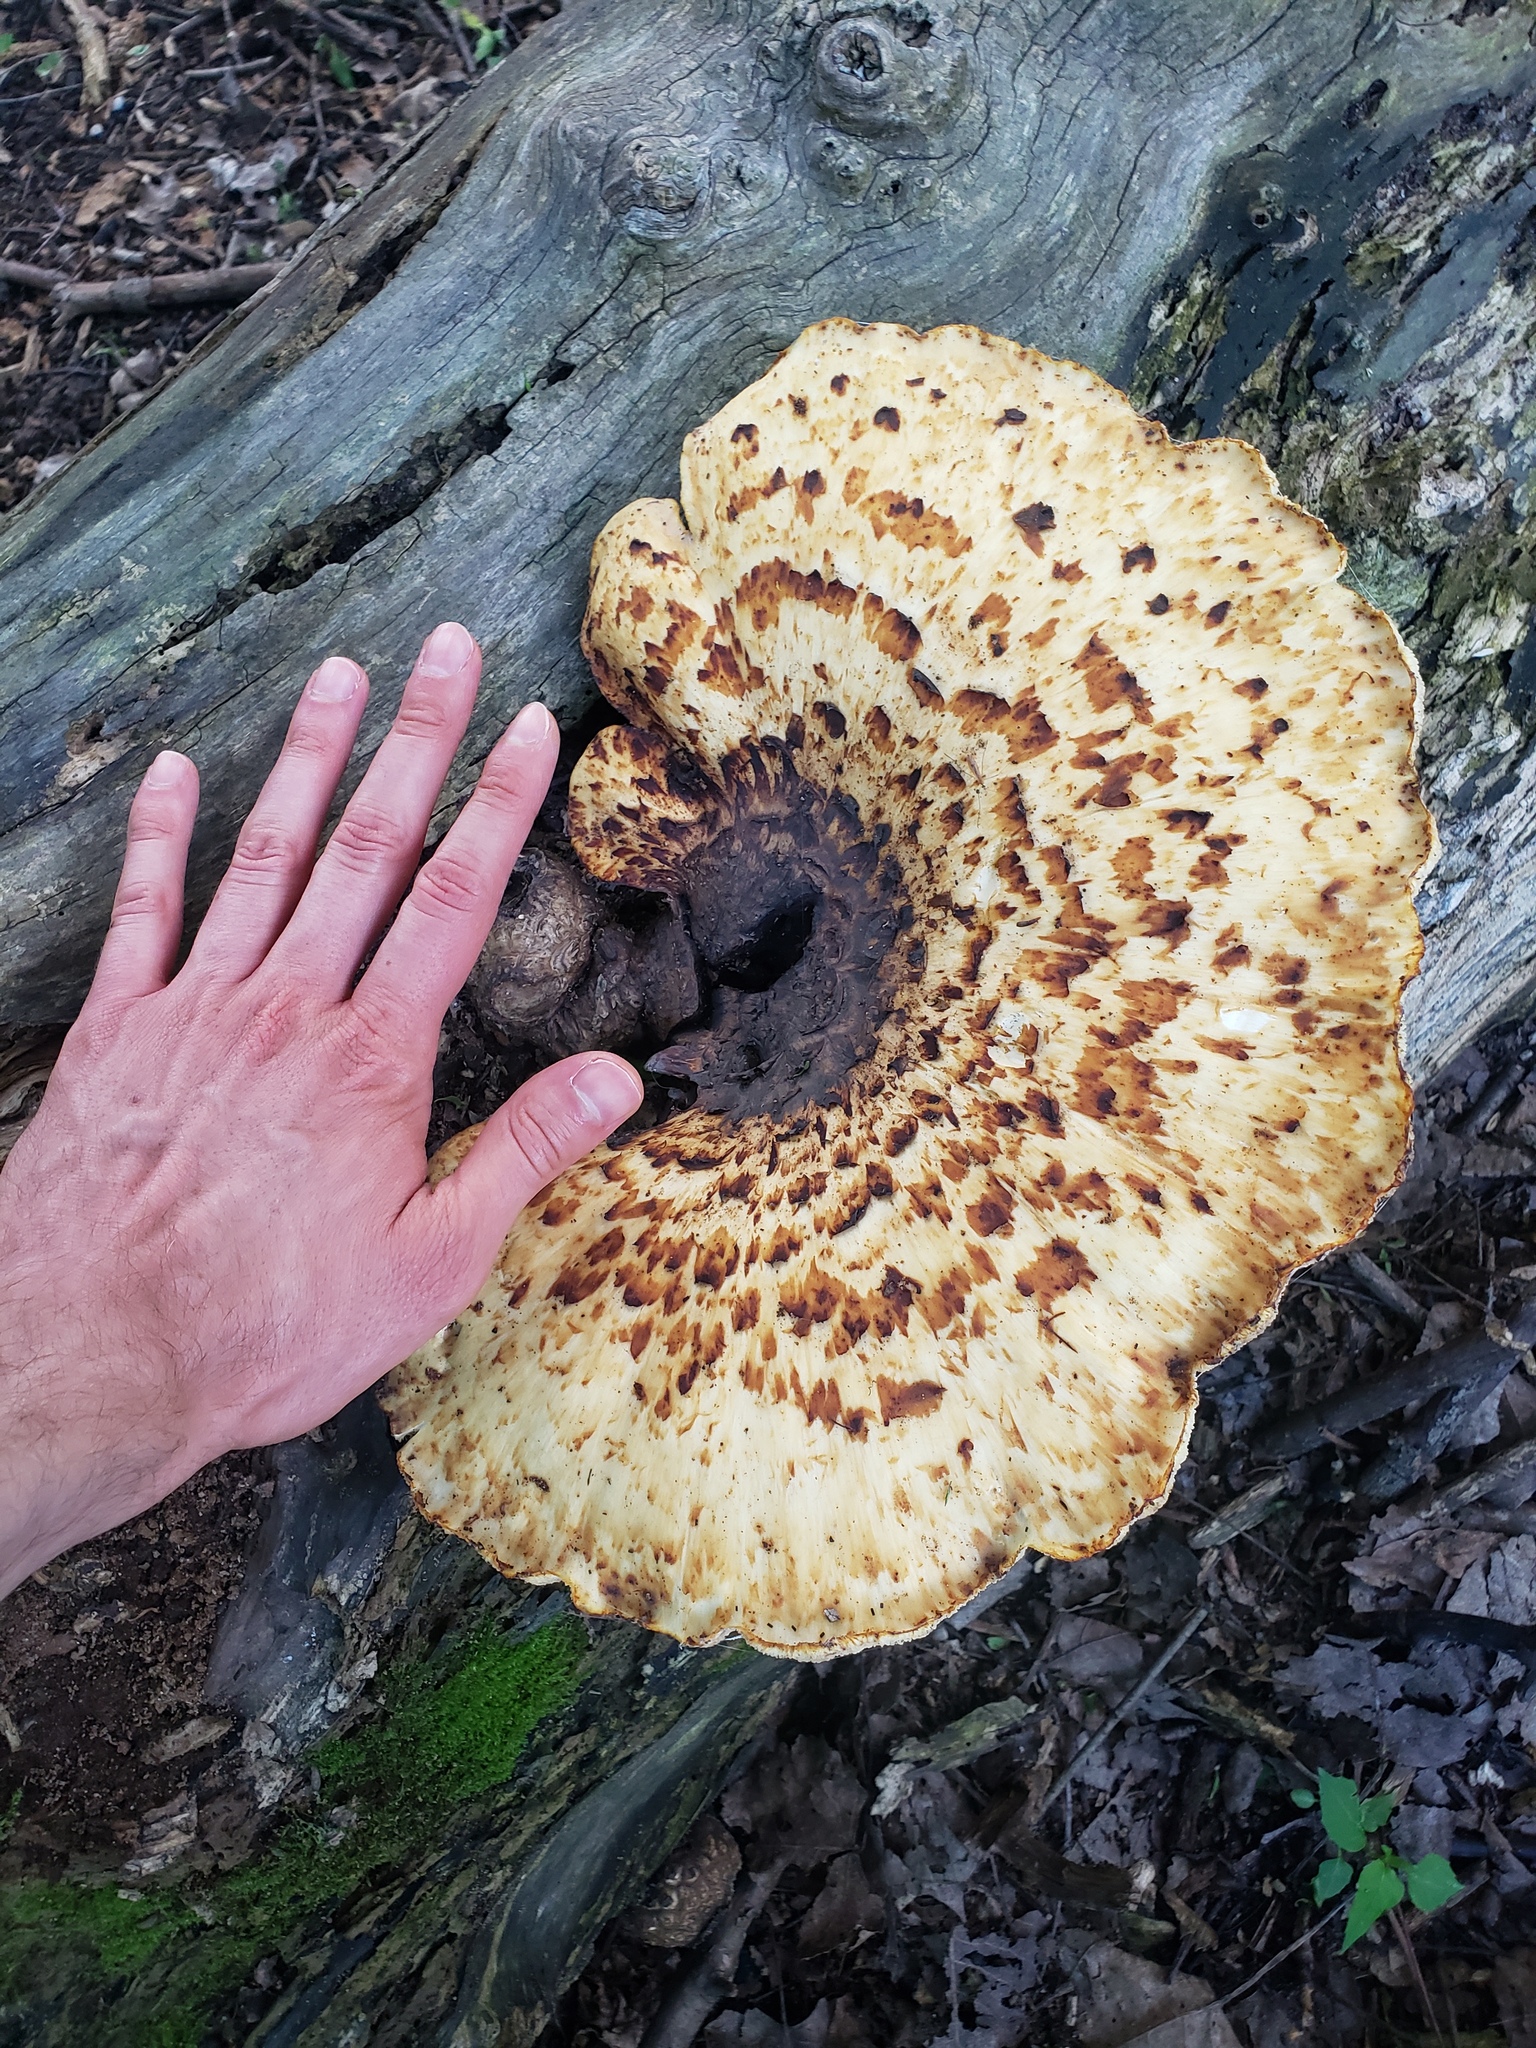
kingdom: Fungi
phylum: Basidiomycota
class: Agaricomycetes
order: Polyporales
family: Polyporaceae
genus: Cerioporus
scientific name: Cerioporus squamosus
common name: Dryad's saddle
